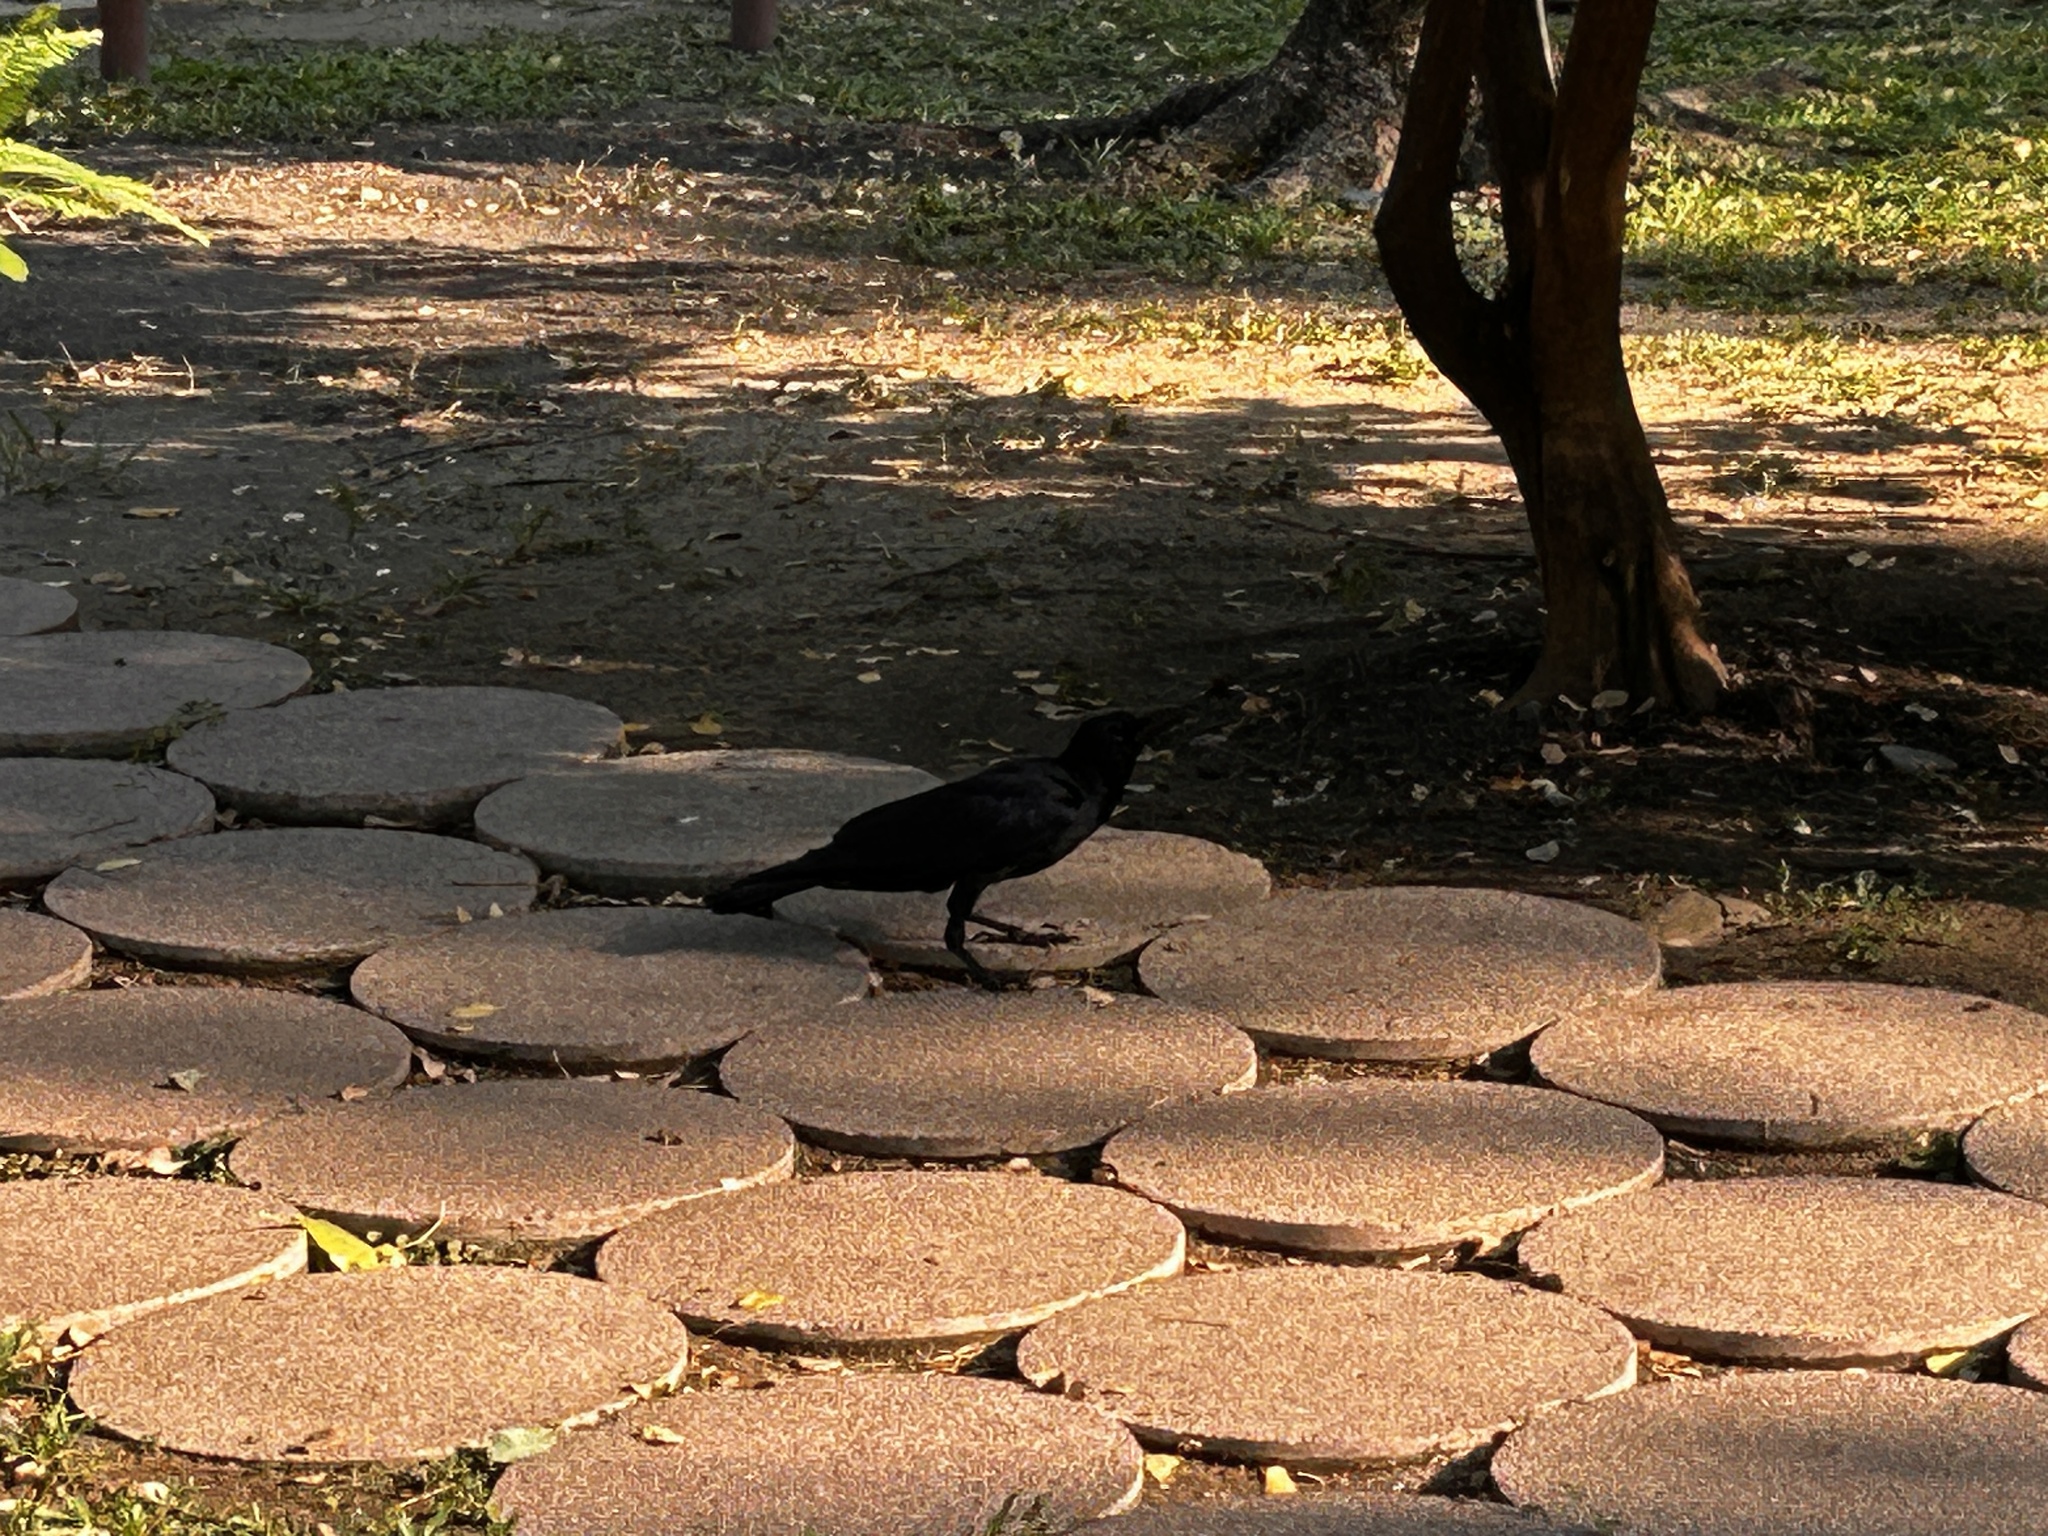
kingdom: Animalia
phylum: Chordata
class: Aves
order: Passeriformes
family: Corvidae
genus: Corvus
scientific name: Corvus macrorhynchos
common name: Large-billed crow
